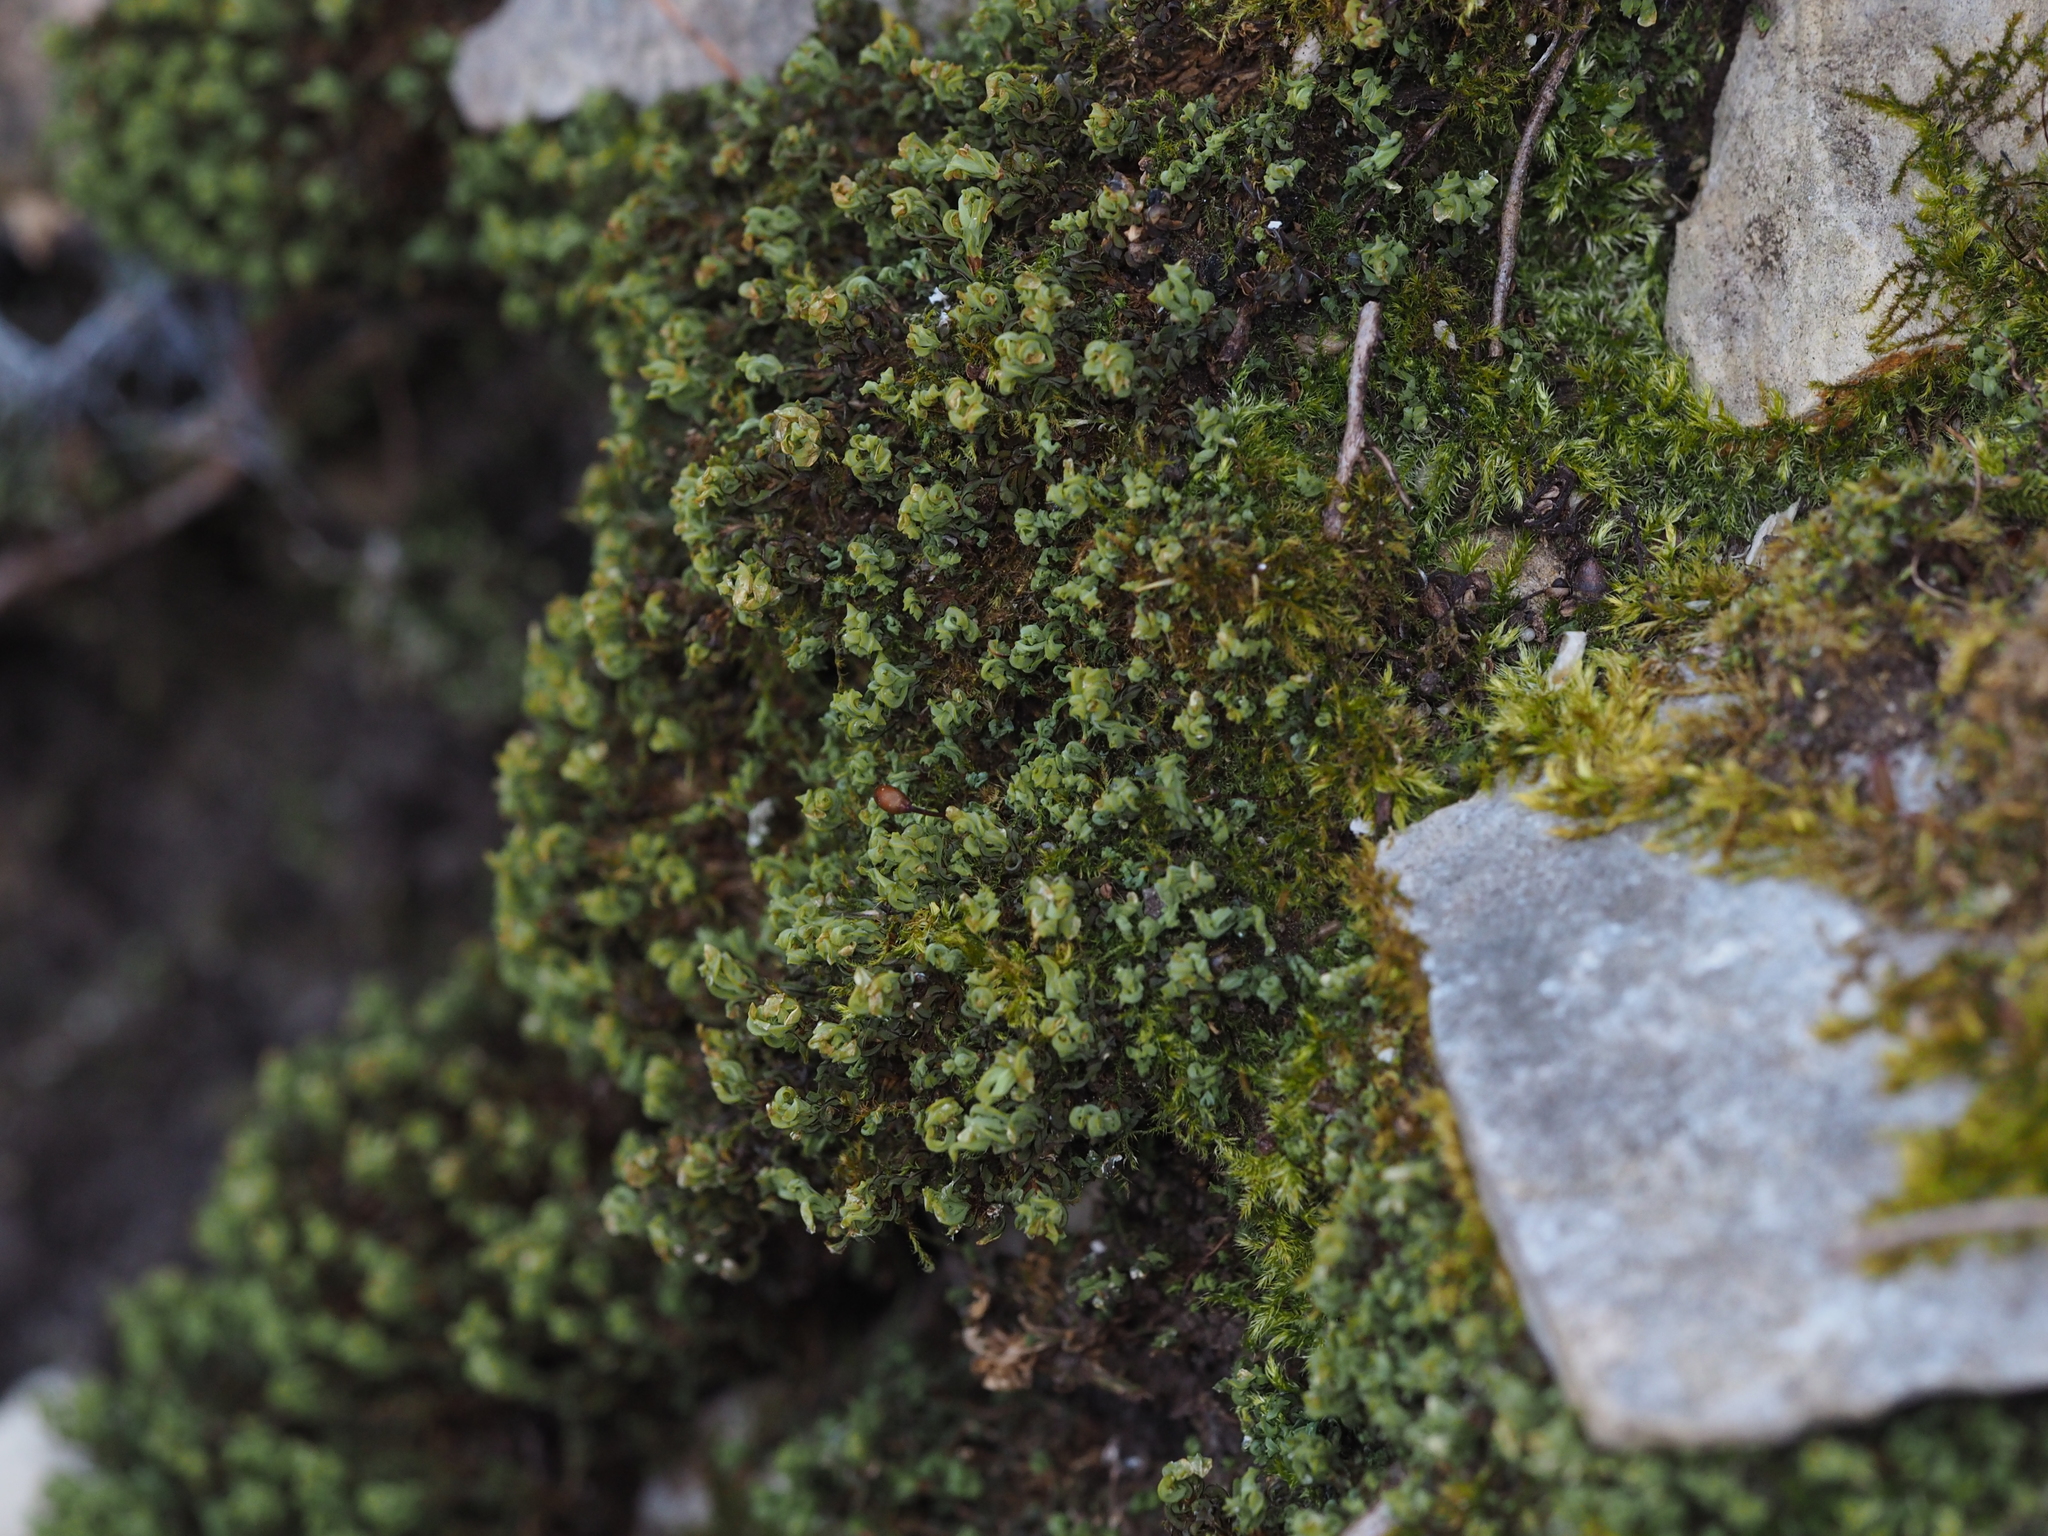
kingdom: Plantae
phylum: Bryophyta
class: Bryopsida
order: Encalyptales
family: Encalyptaceae
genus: Encalypta
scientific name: Encalypta streptocarpa
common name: Spiral extinguisher-moss
